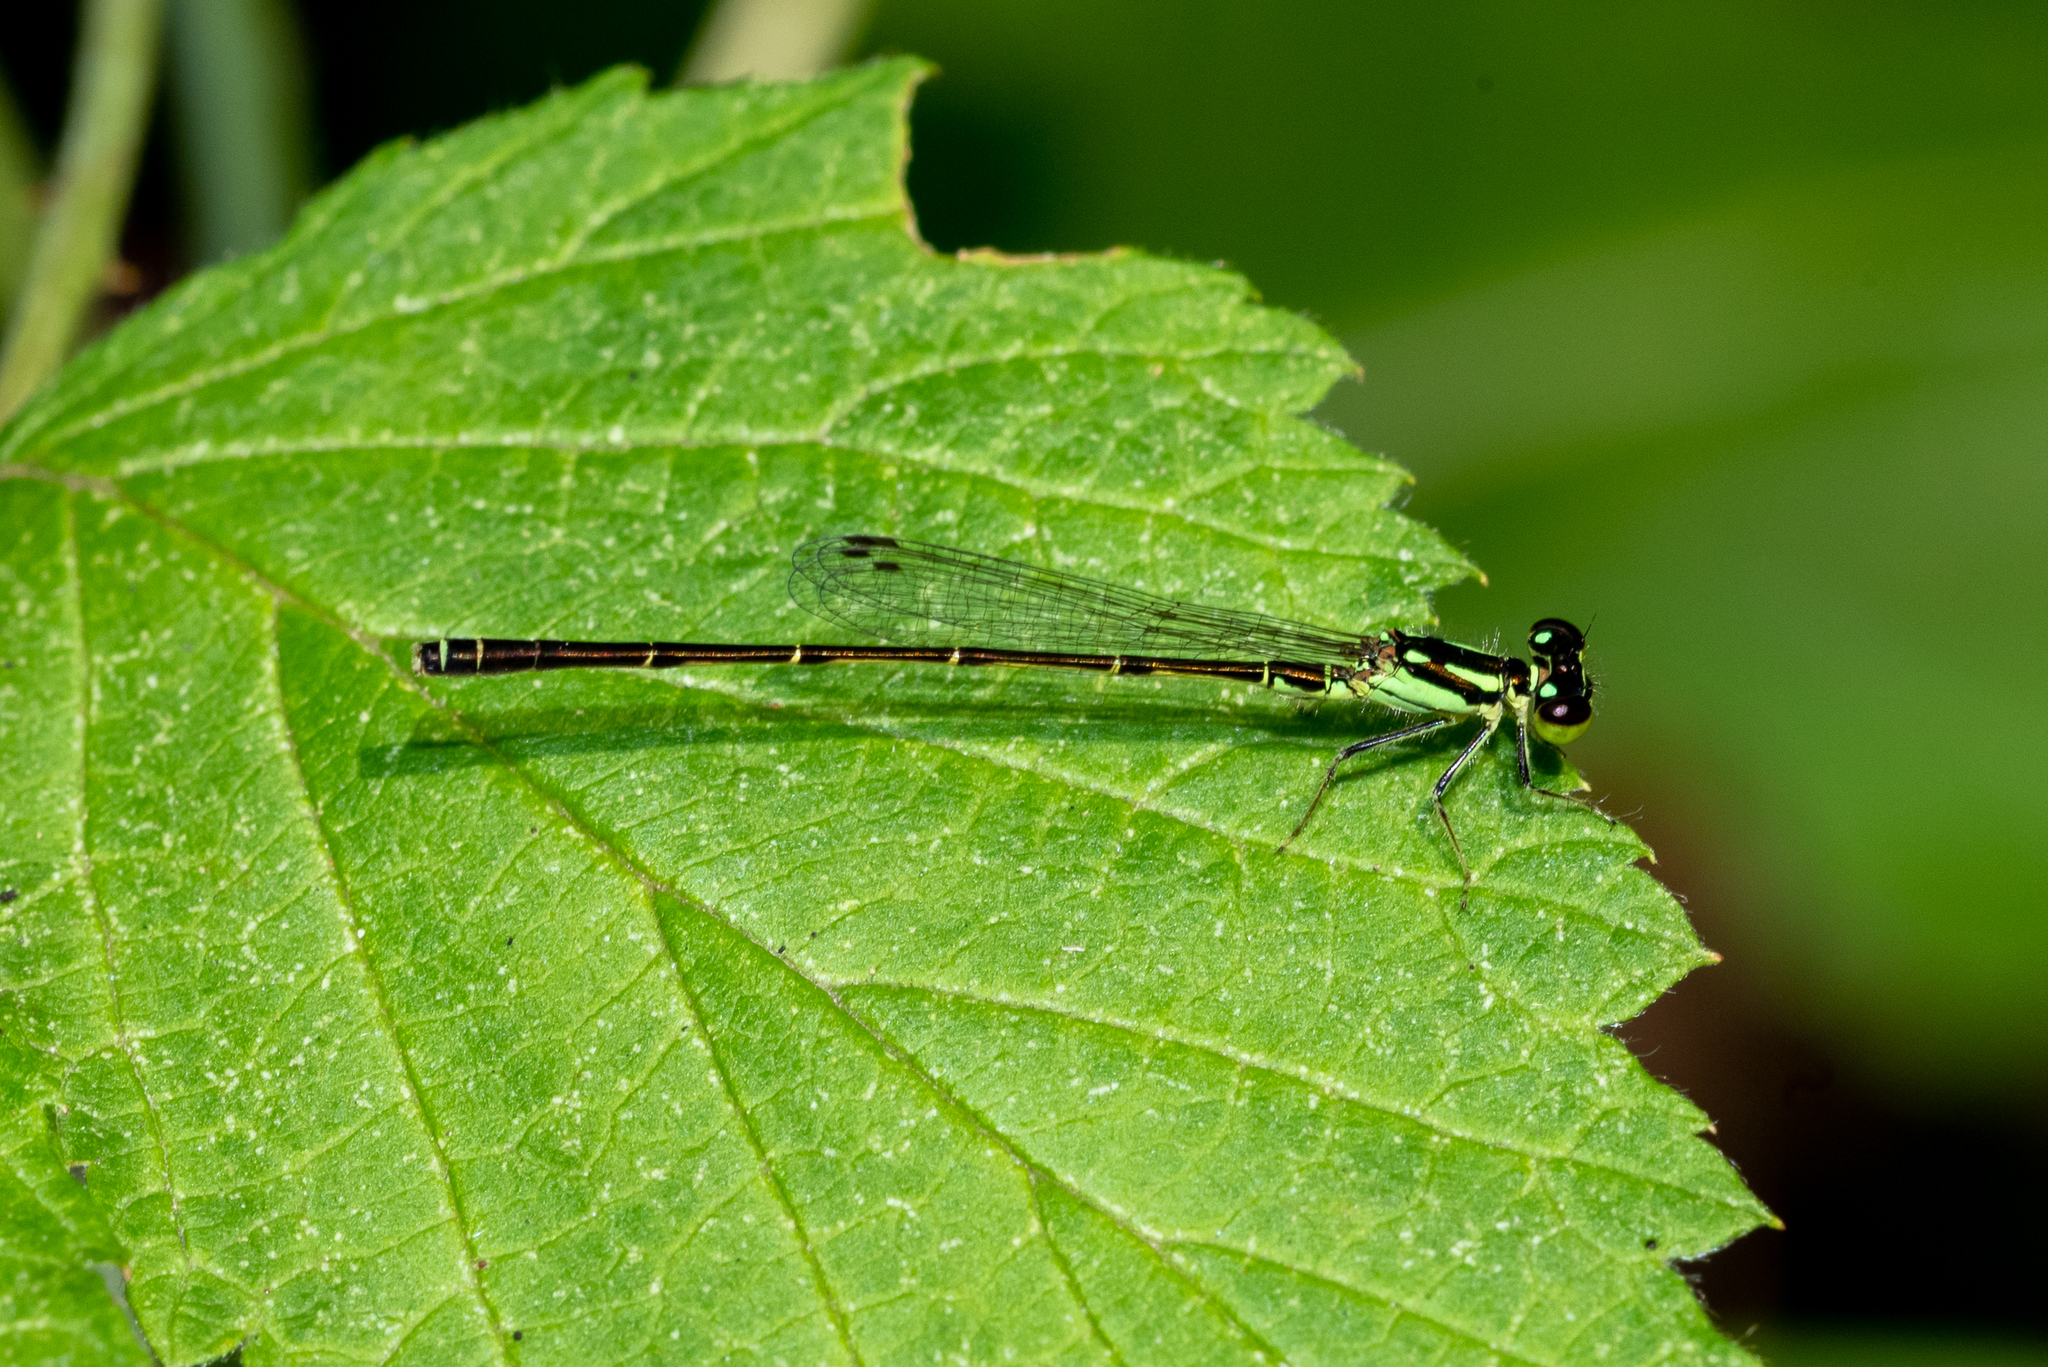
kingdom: Animalia
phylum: Arthropoda
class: Insecta
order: Odonata
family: Coenagrionidae
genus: Ischnura
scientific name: Ischnura posita
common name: Fragile forktail
